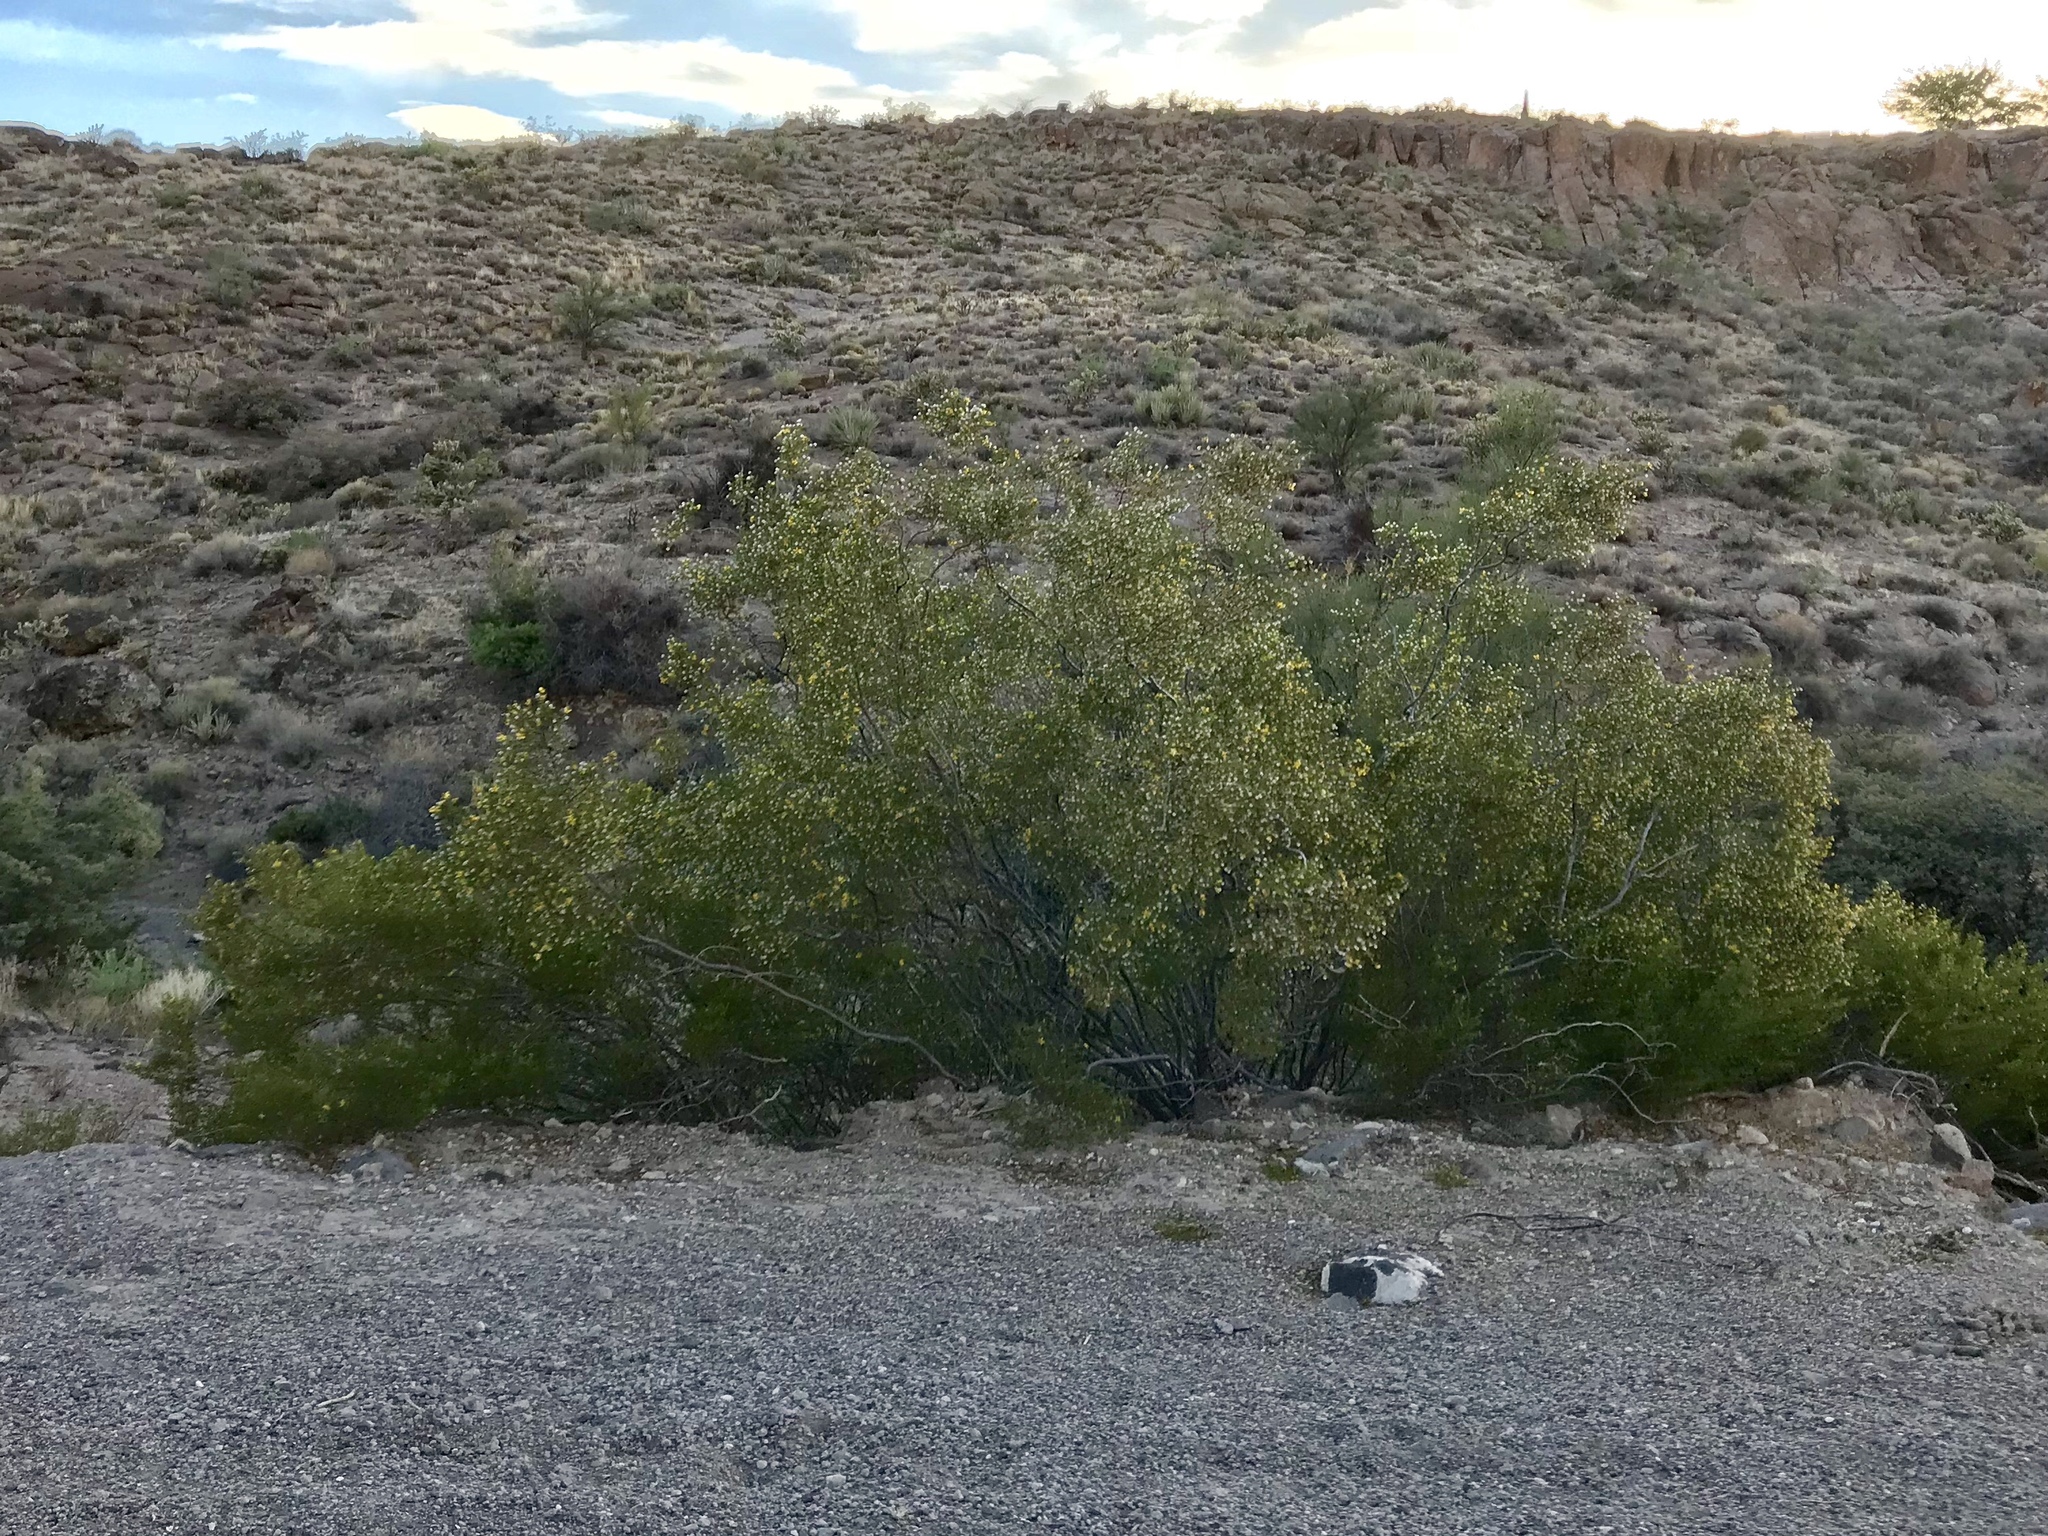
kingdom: Plantae
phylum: Tracheophyta
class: Magnoliopsida
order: Zygophyllales
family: Zygophyllaceae
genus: Larrea
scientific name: Larrea tridentata
